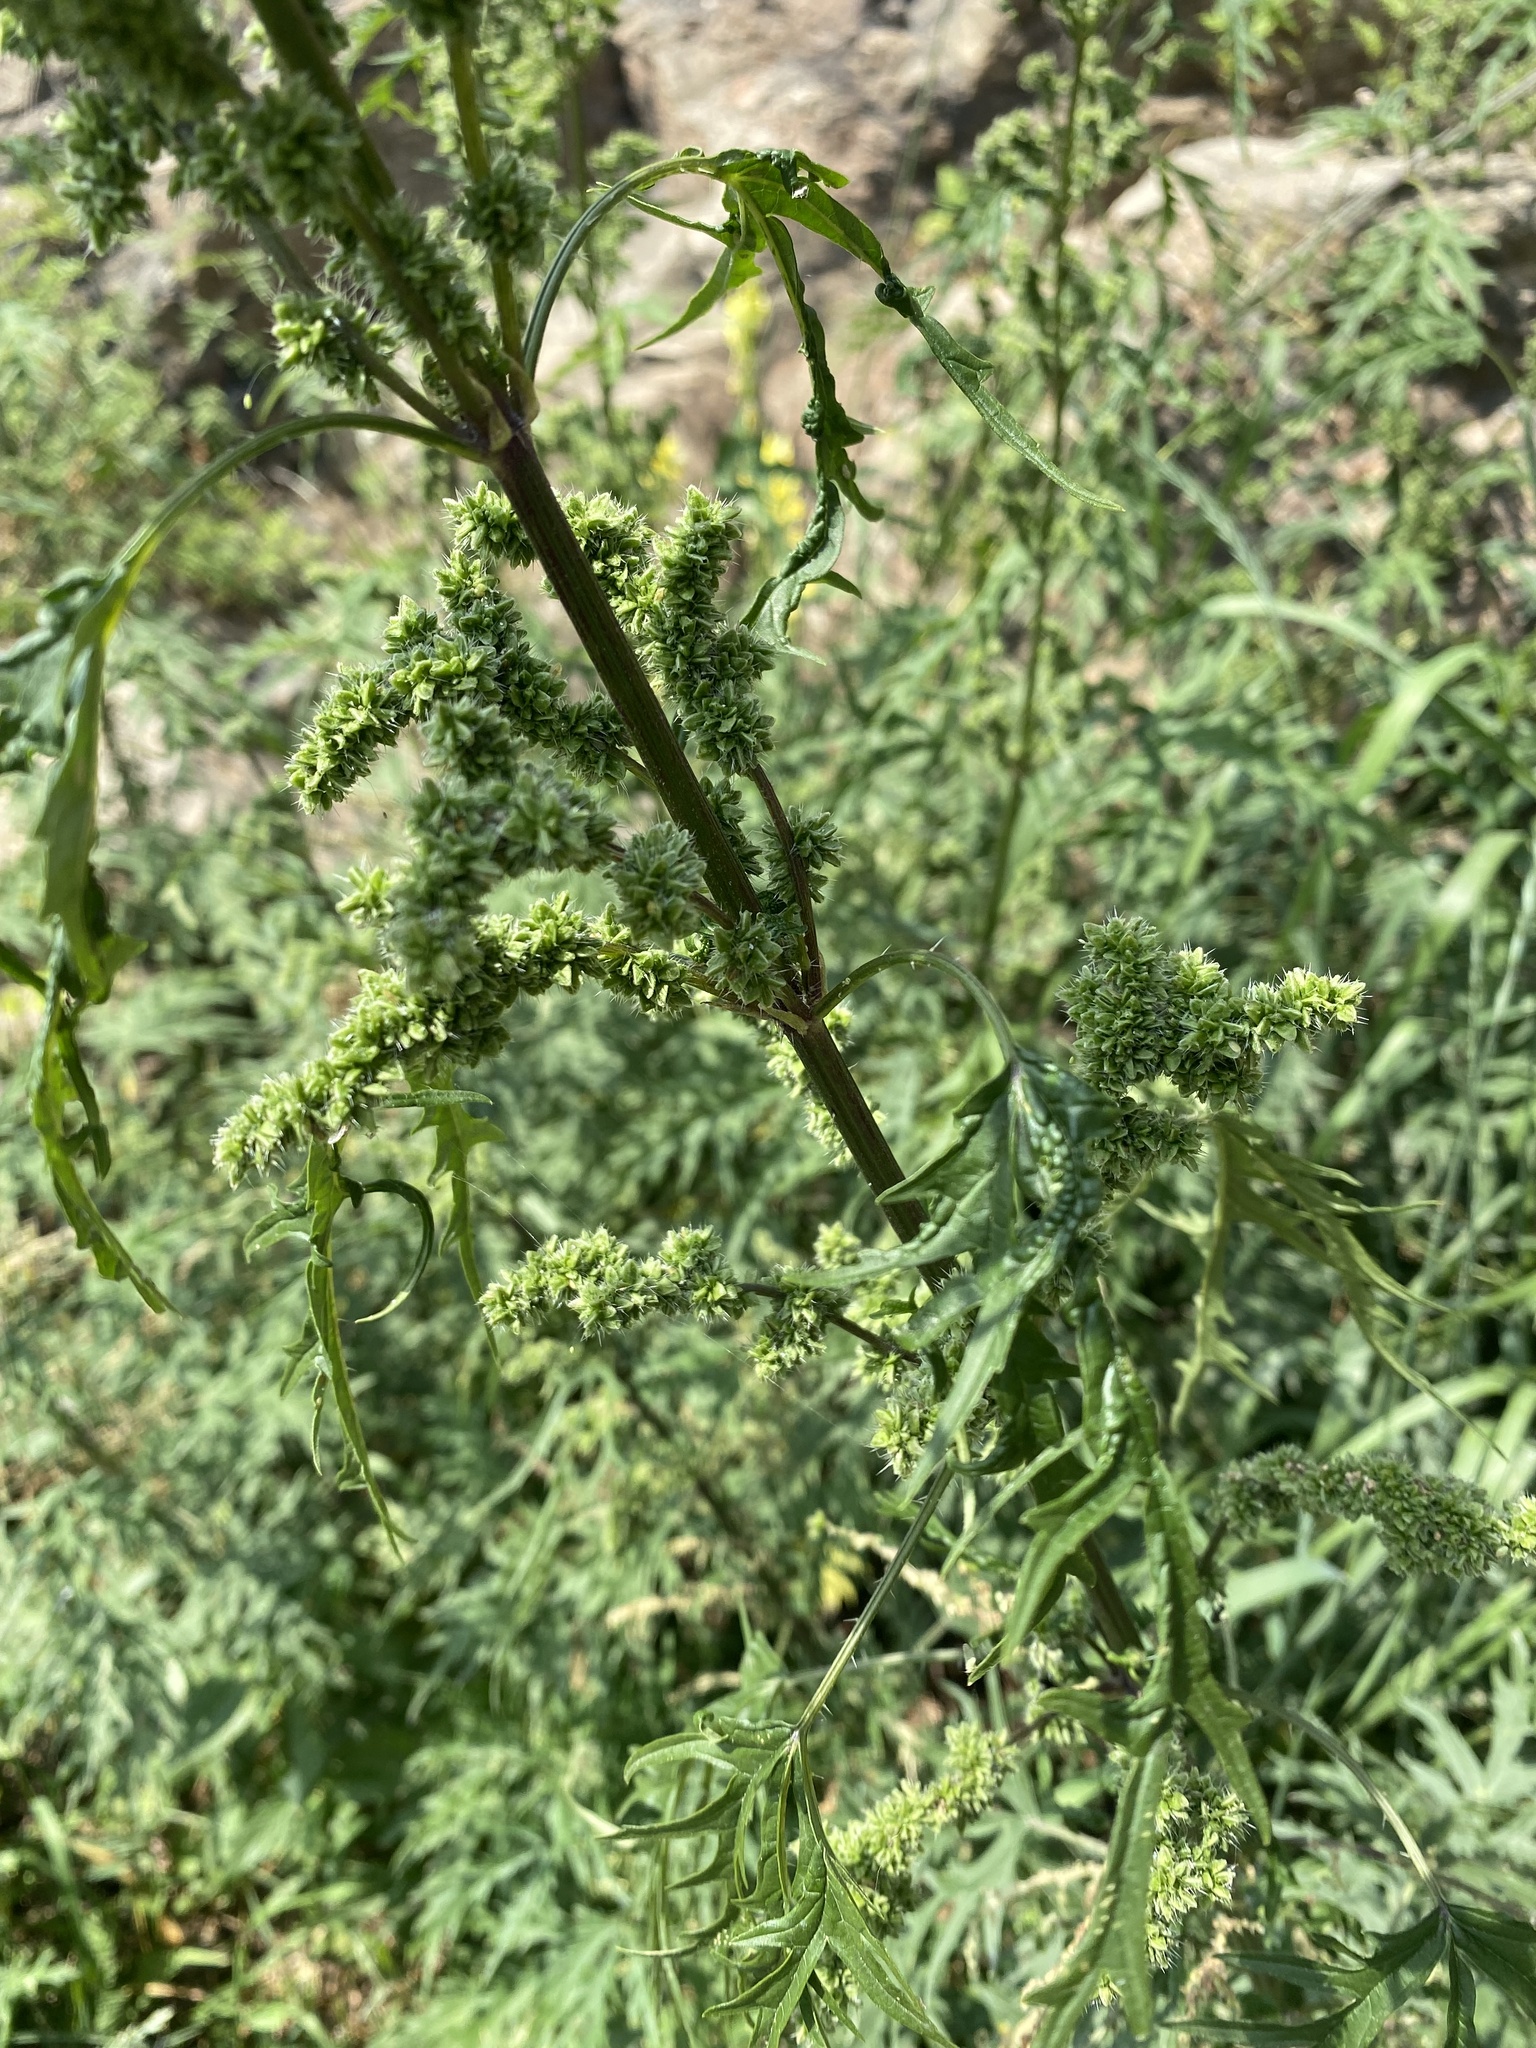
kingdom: Plantae
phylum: Tracheophyta
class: Magnoliopsida
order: Rosales
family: Urticaceae
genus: Urtica
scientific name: Urtica cannabina
